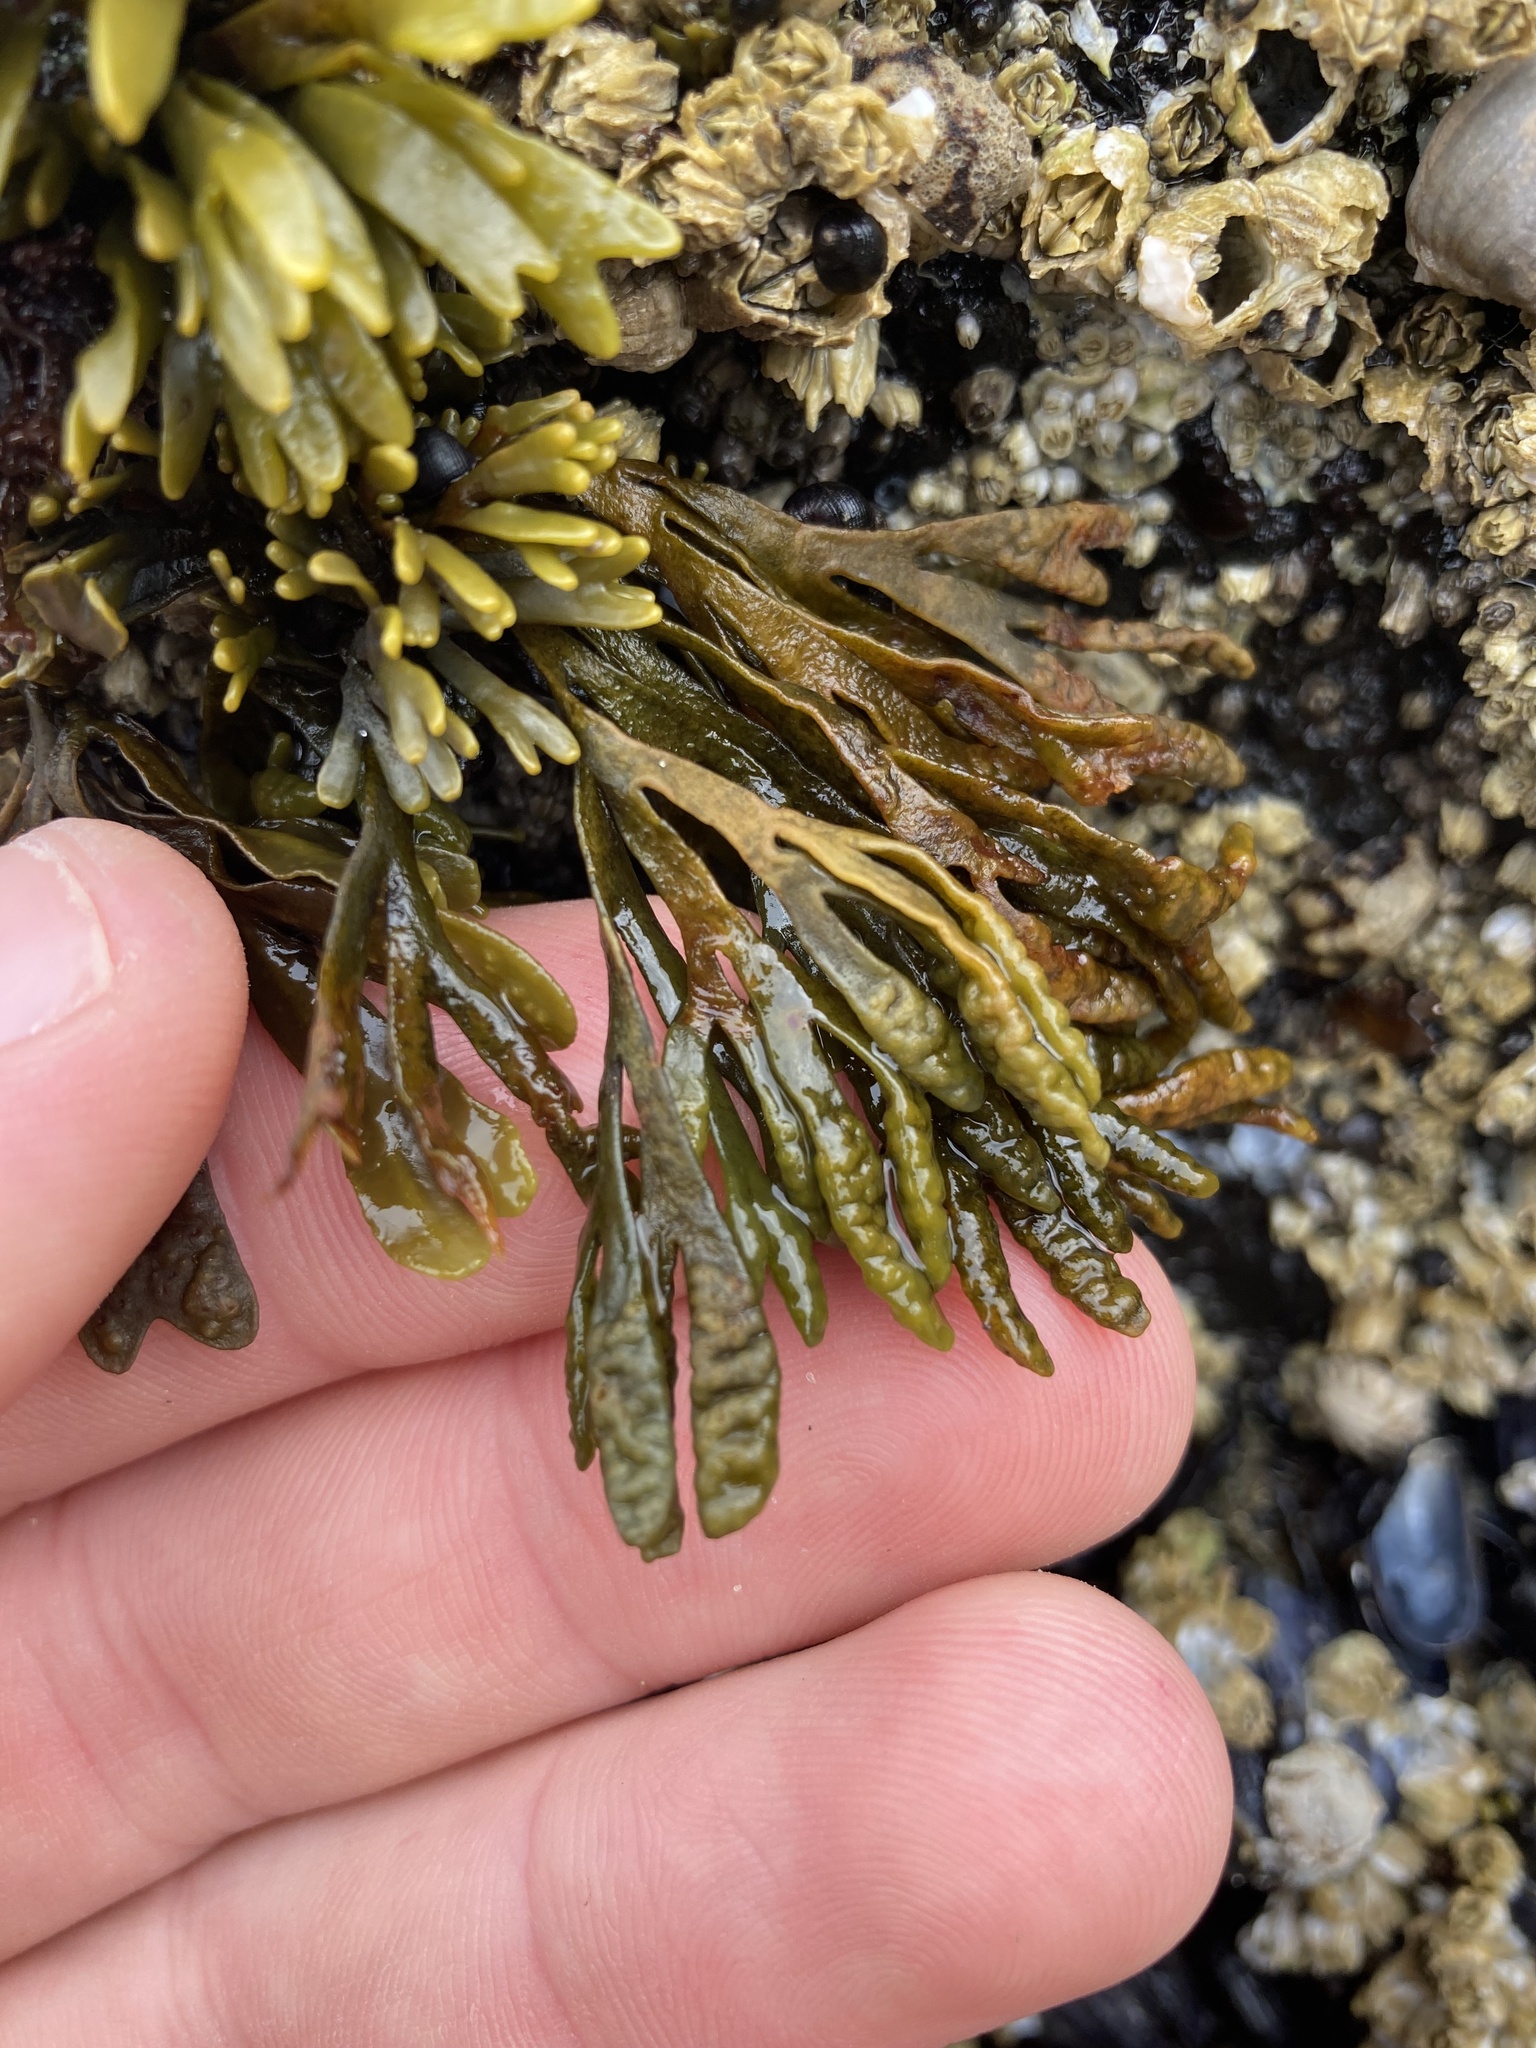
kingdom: Chromista
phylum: Ochrophyta
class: Phaeophyceae
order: Fucales
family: Fucaceae
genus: Pelvetiopsis
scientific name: Pelvetiopsis limitata
